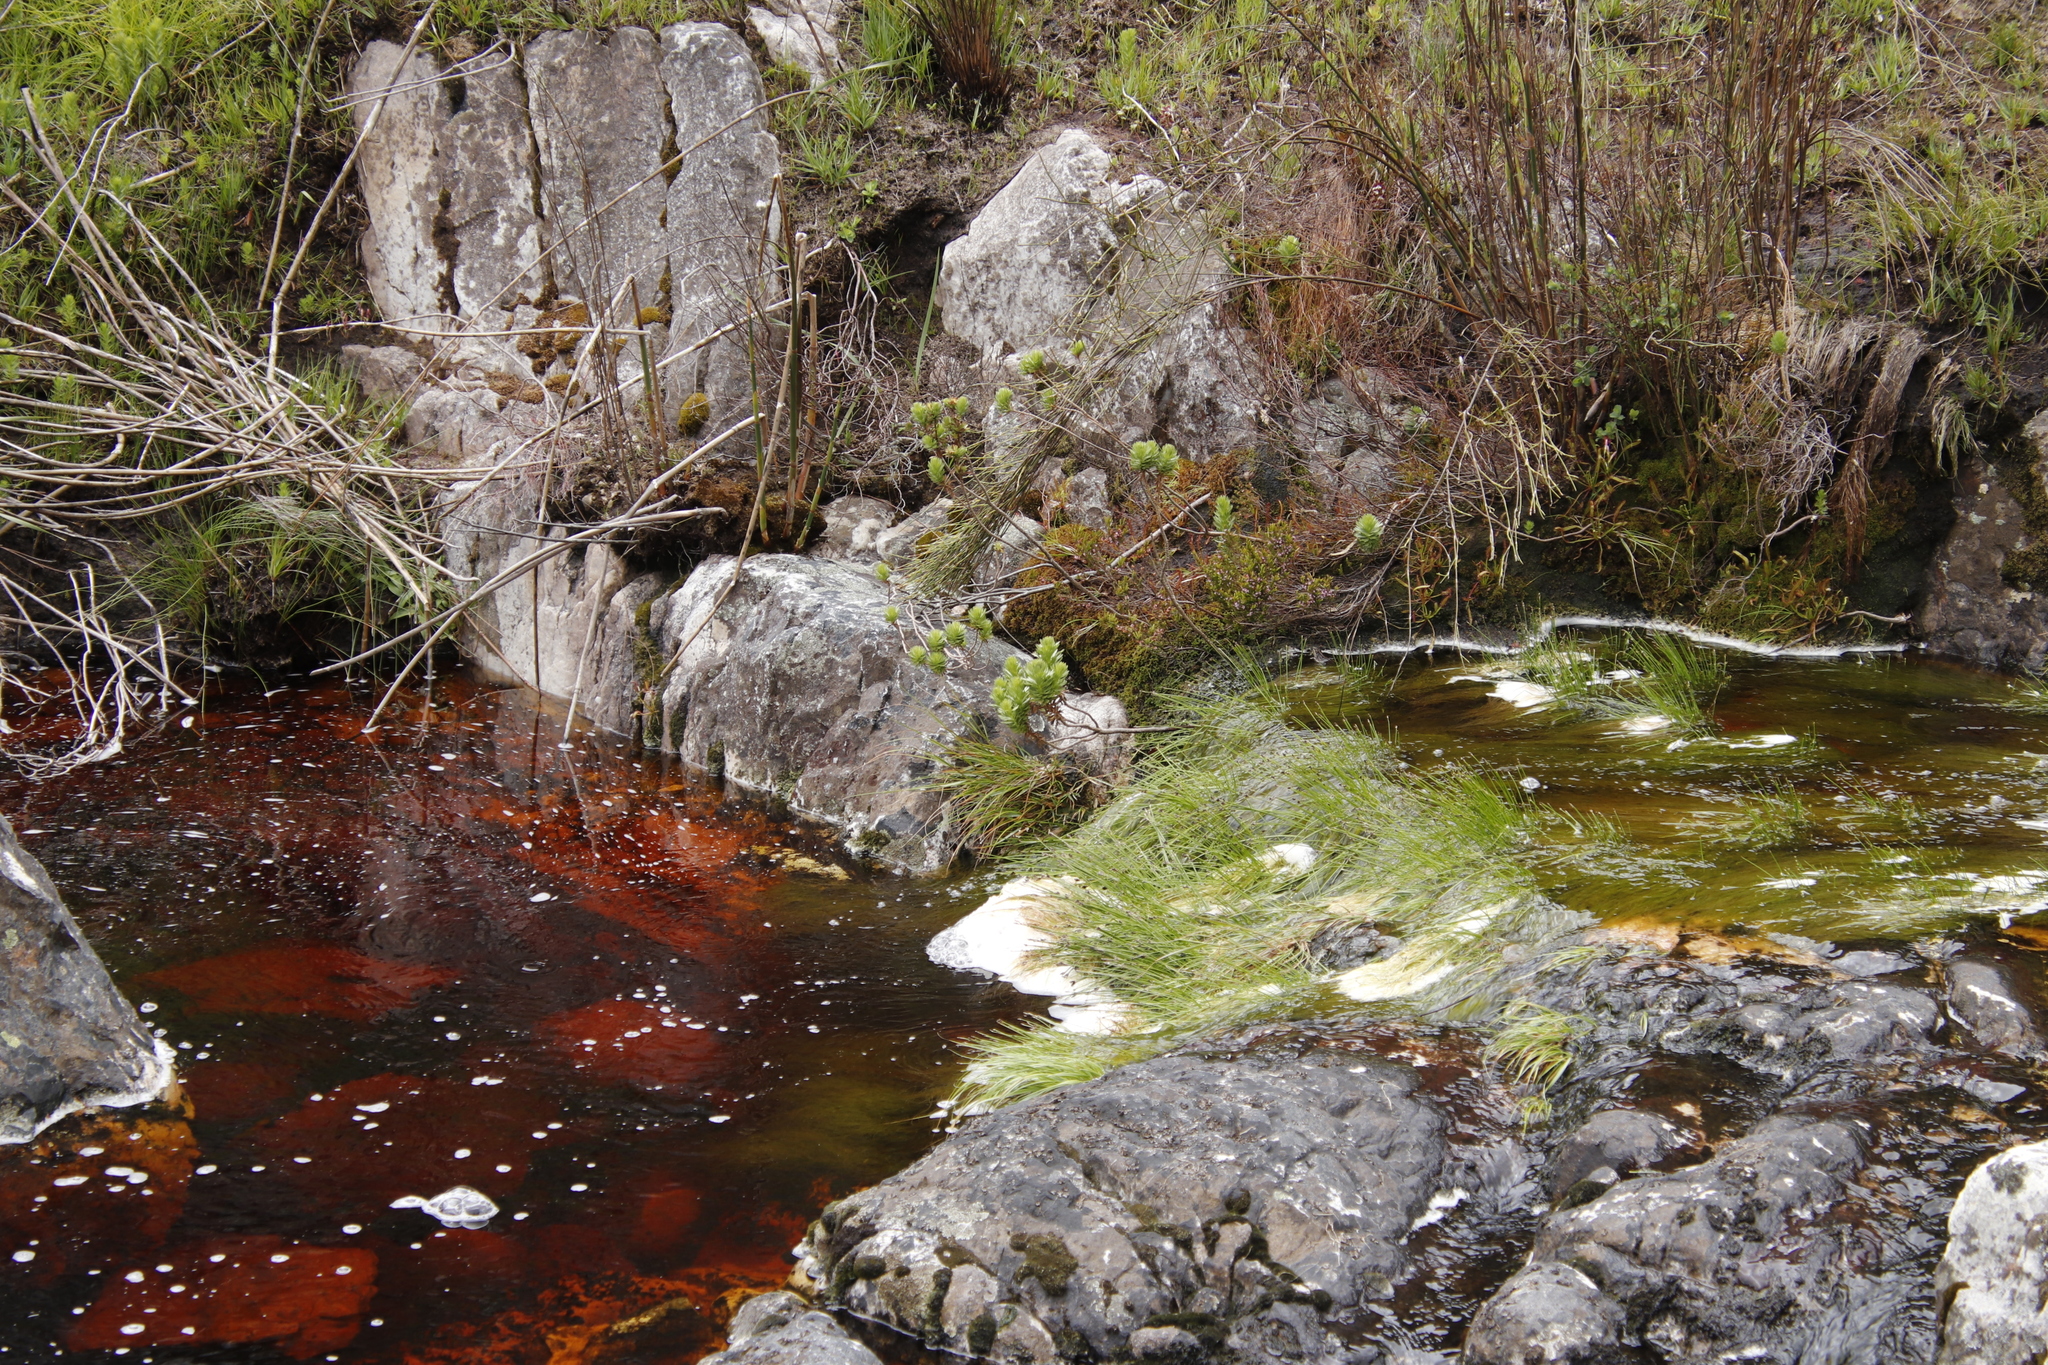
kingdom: Plantae
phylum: Tracheophyta
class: Liliopsida
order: Poales
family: Cyperaceae
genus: Isolepis
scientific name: Isolepis digitata
